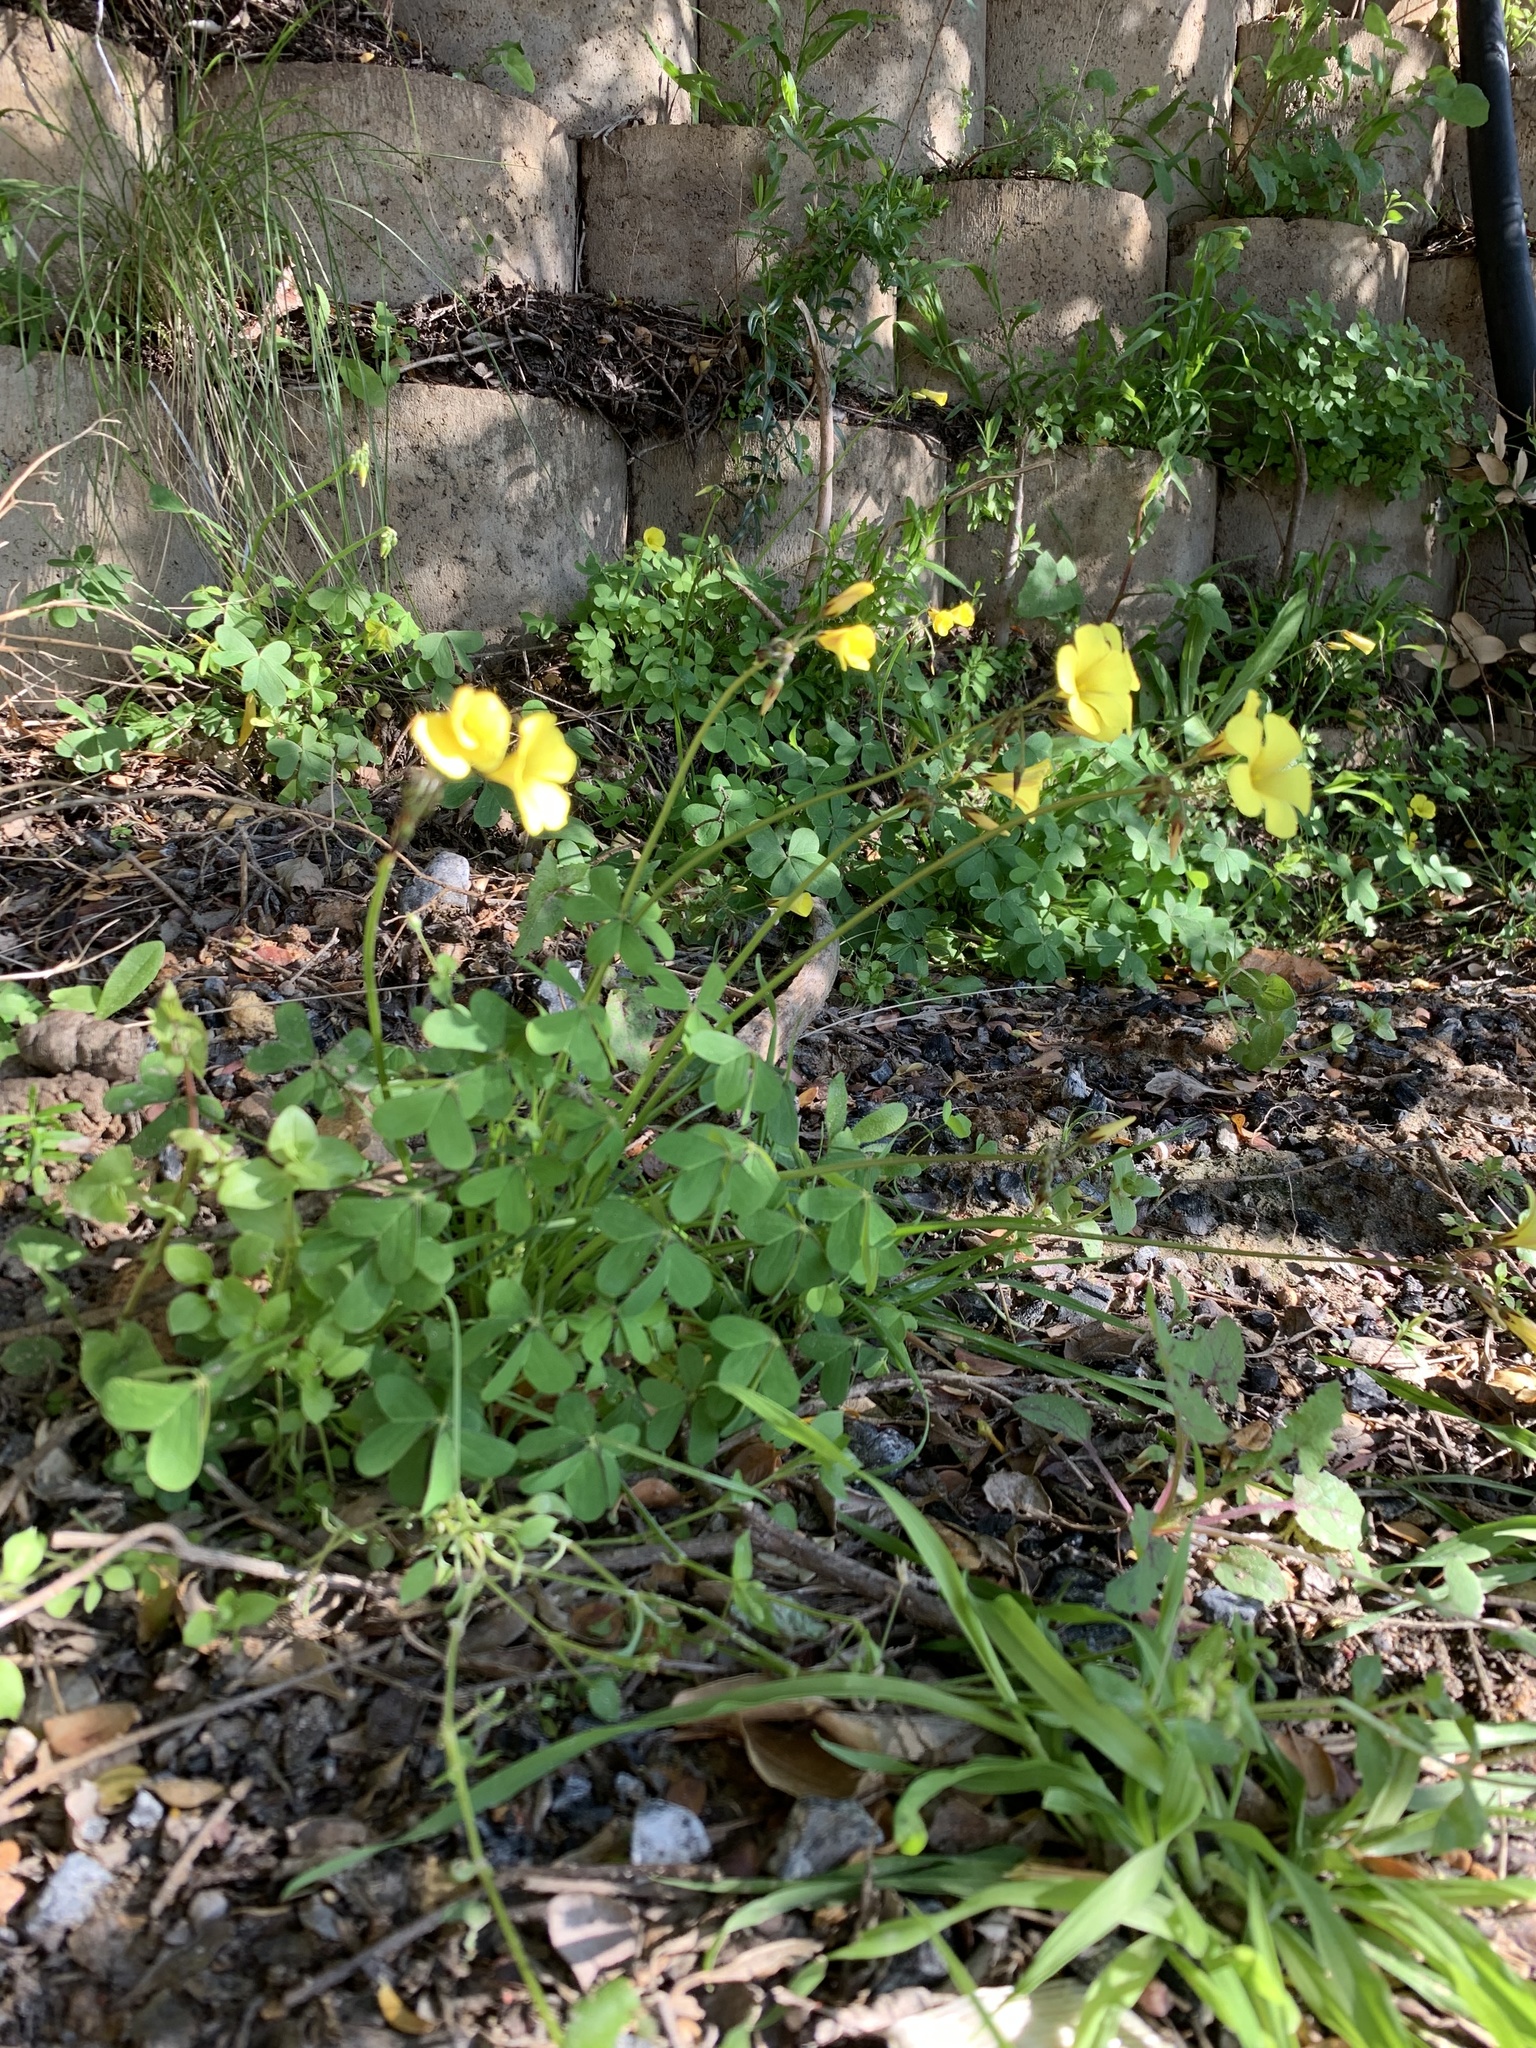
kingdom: Plantae
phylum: Tracheophyta
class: Magnoliopsida
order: Oxalidales
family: Oxalidaceae
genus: Oxalis
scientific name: Oxalis pes-caprae
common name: Bermuda-buttercup
